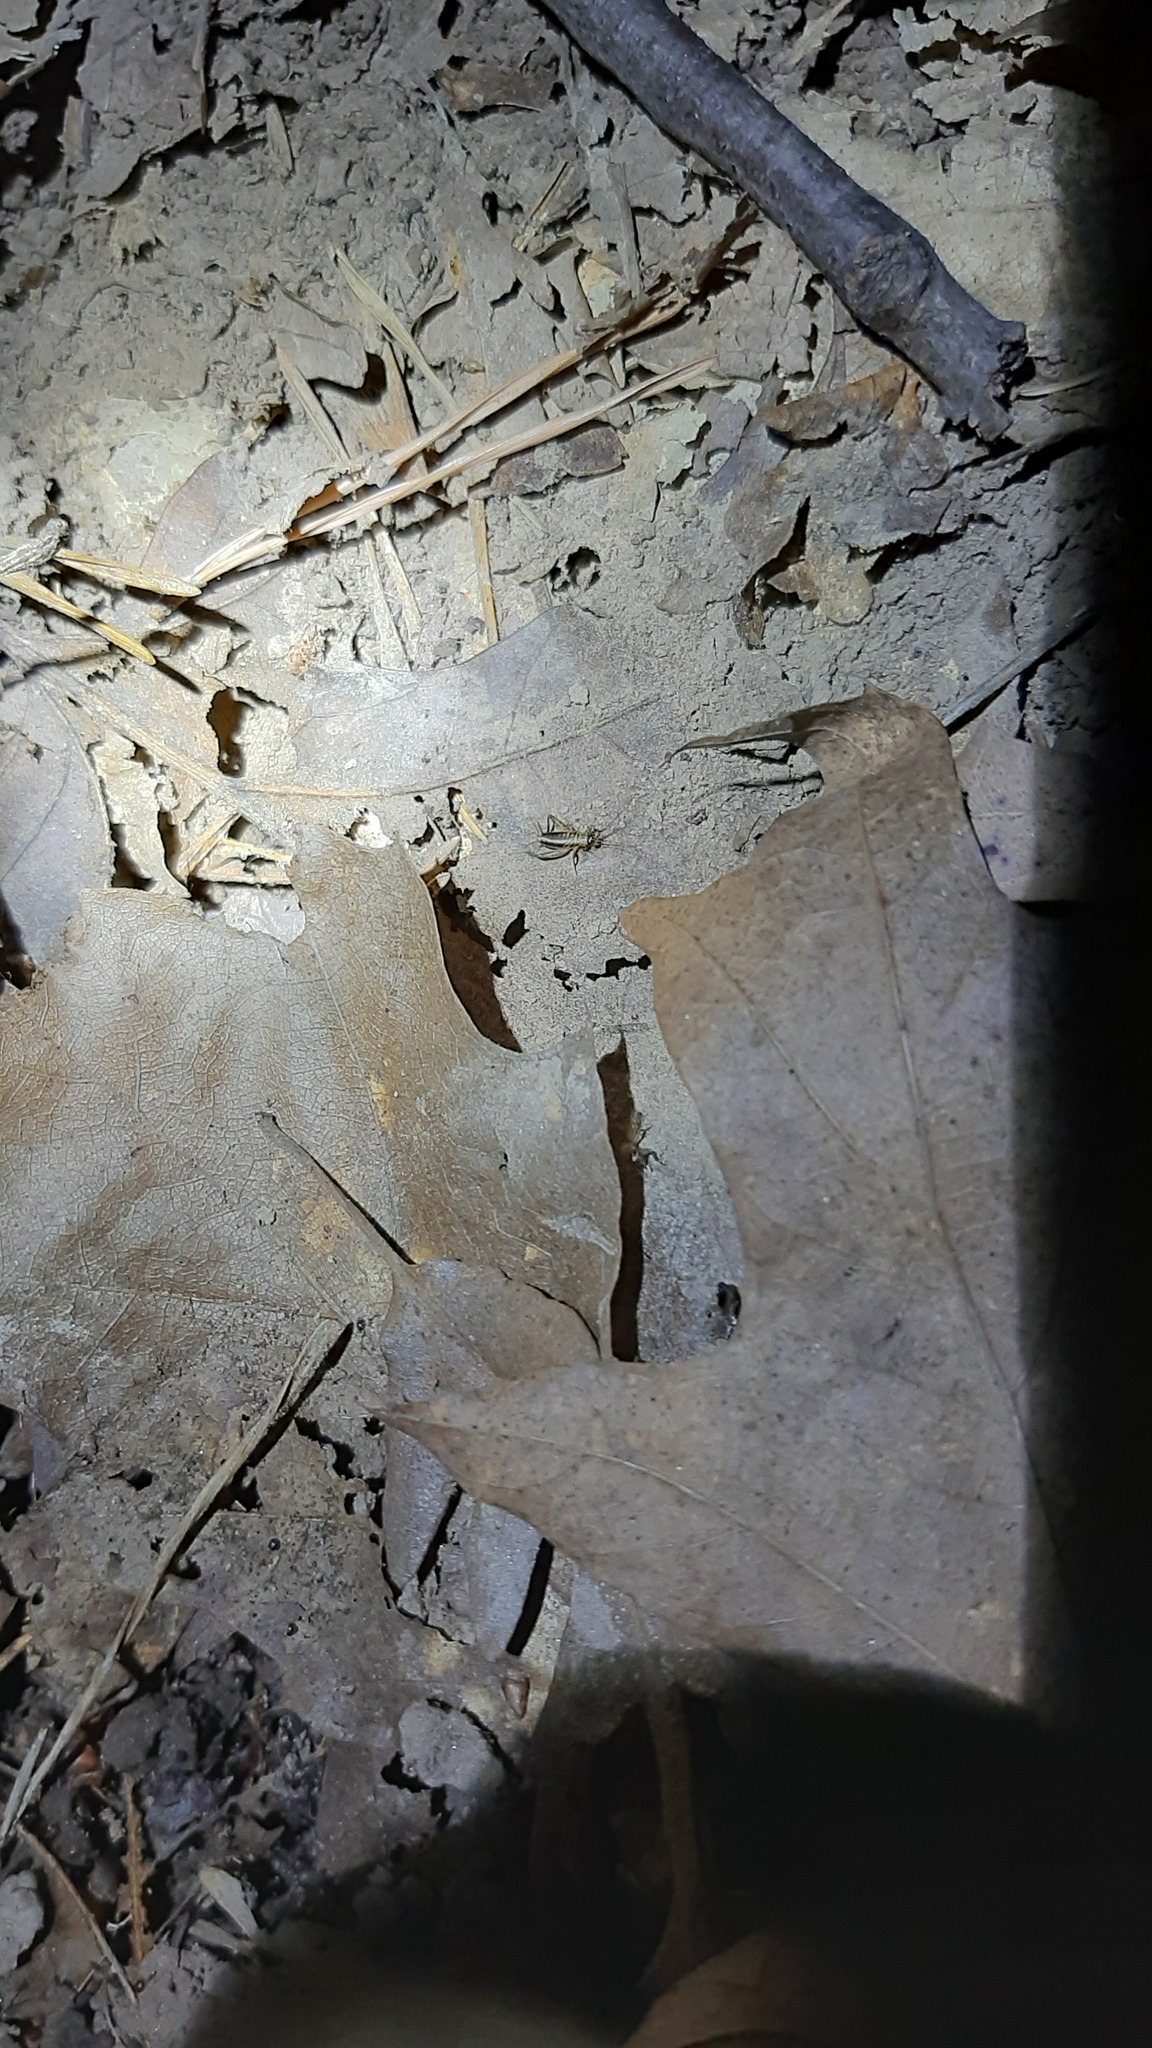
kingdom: Animalia
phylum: Arthropoda
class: Insecta
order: Orthoptera
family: Trigonidiidae
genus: Nemobius
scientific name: Nemobius sylvestris
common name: Wood-cricket
